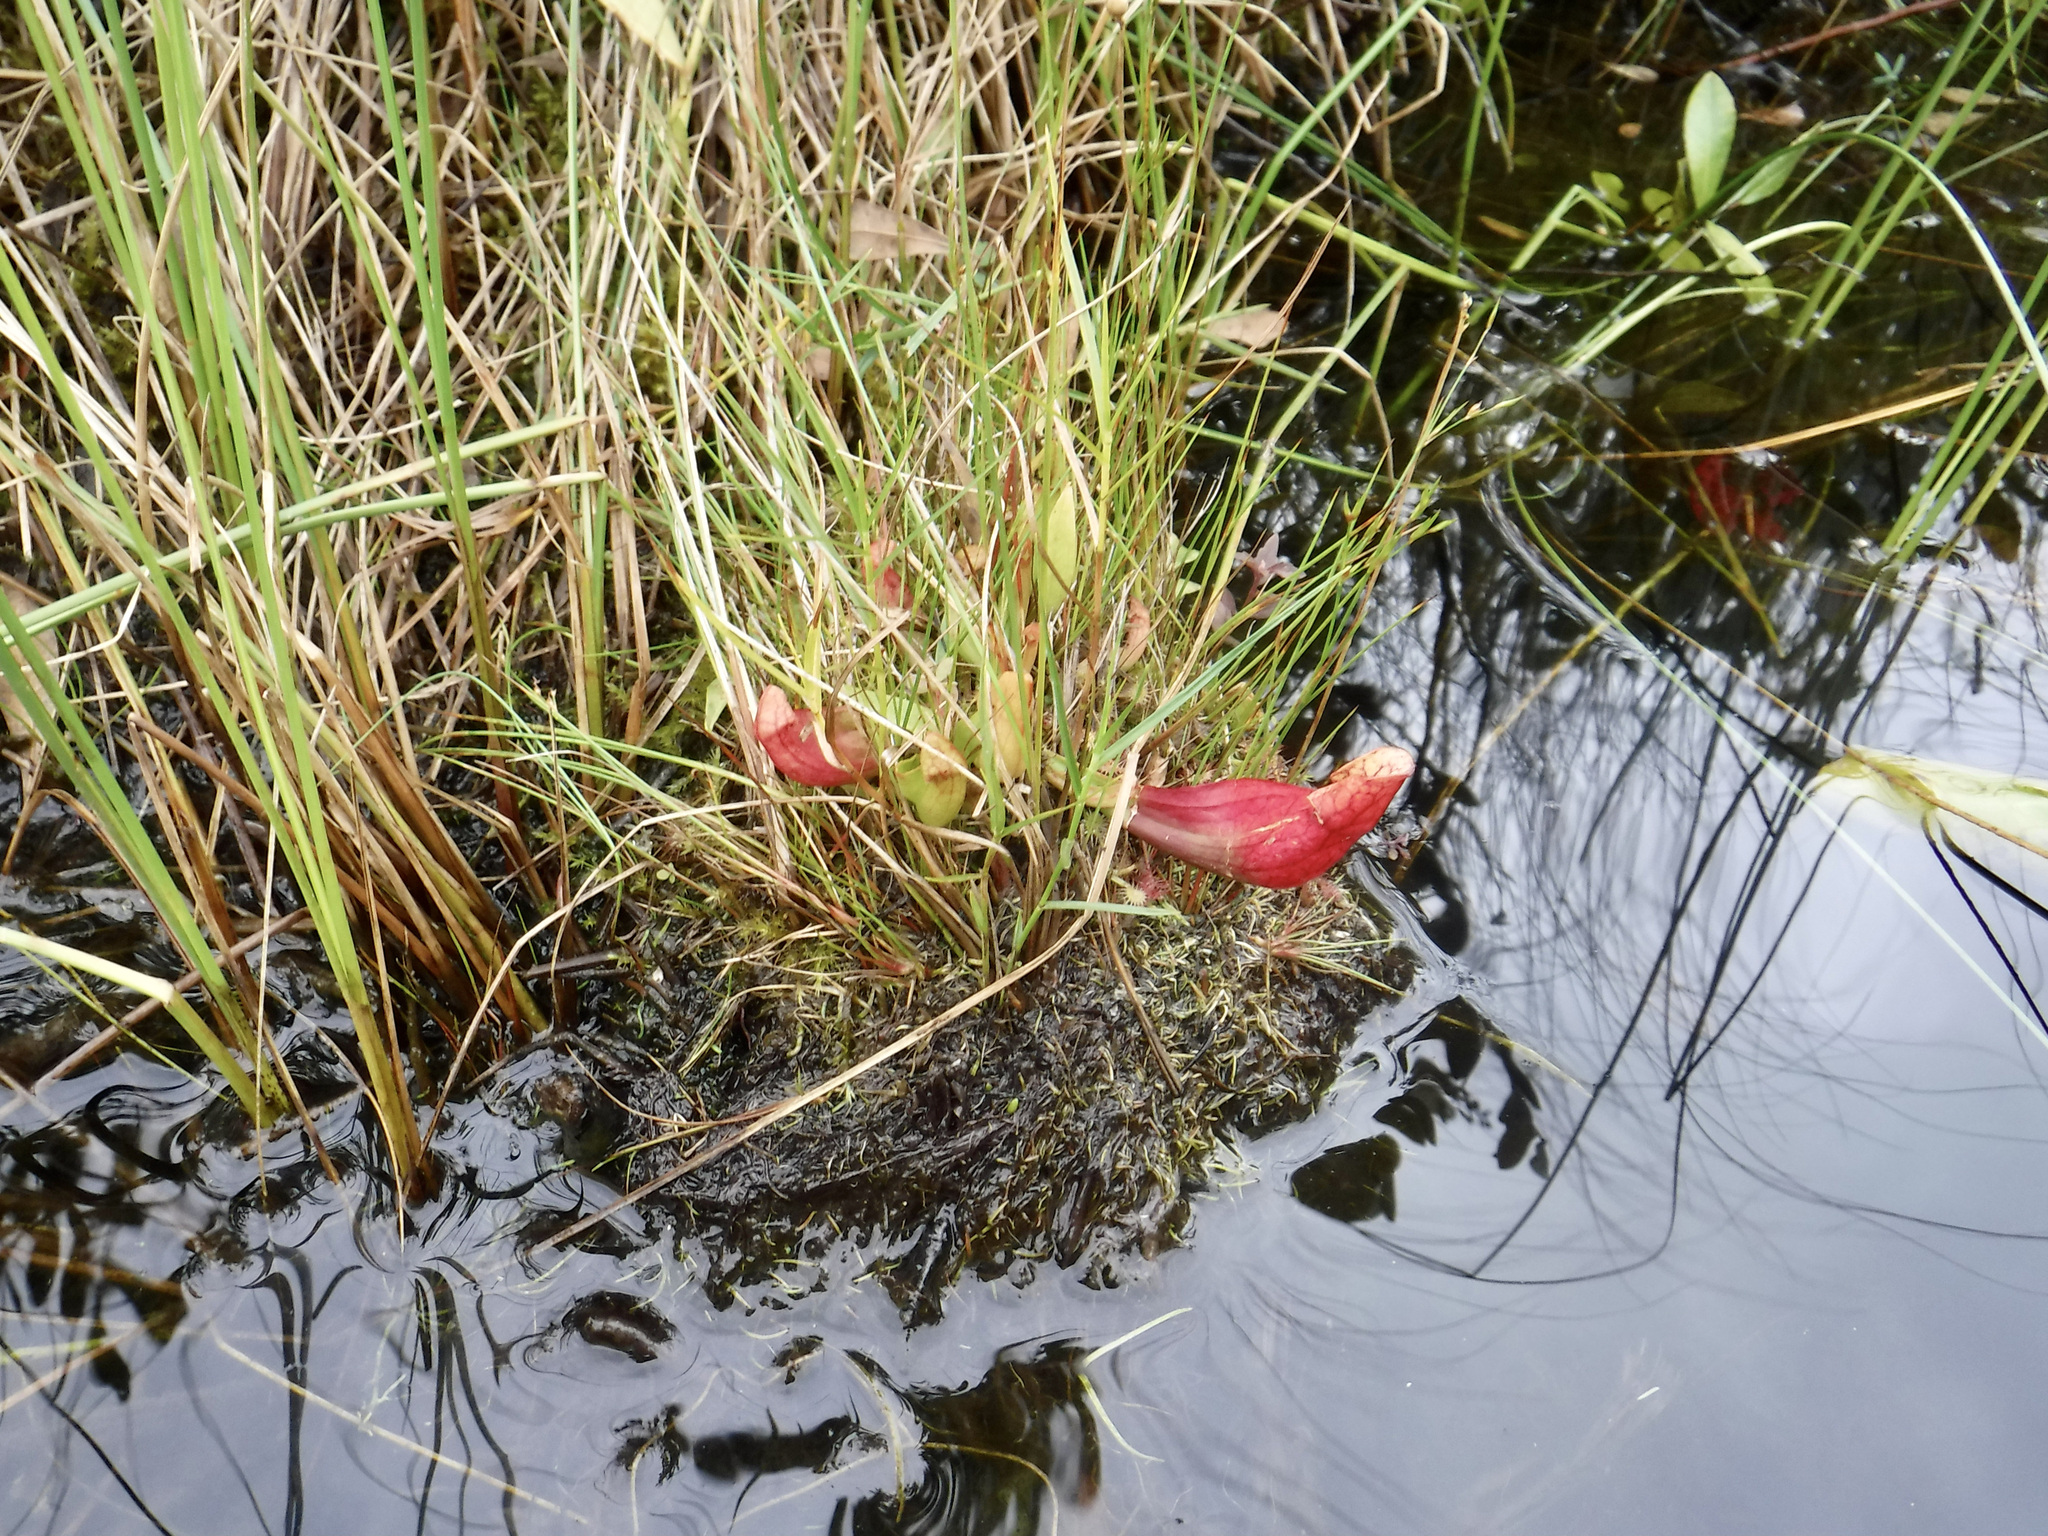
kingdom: Plantae
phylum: Tracheophyta
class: Magnoliopsida
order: Ericales
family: Sarraceniaceae
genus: Sarracenia
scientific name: Sarracenia purpurea
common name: Pitcherplant
